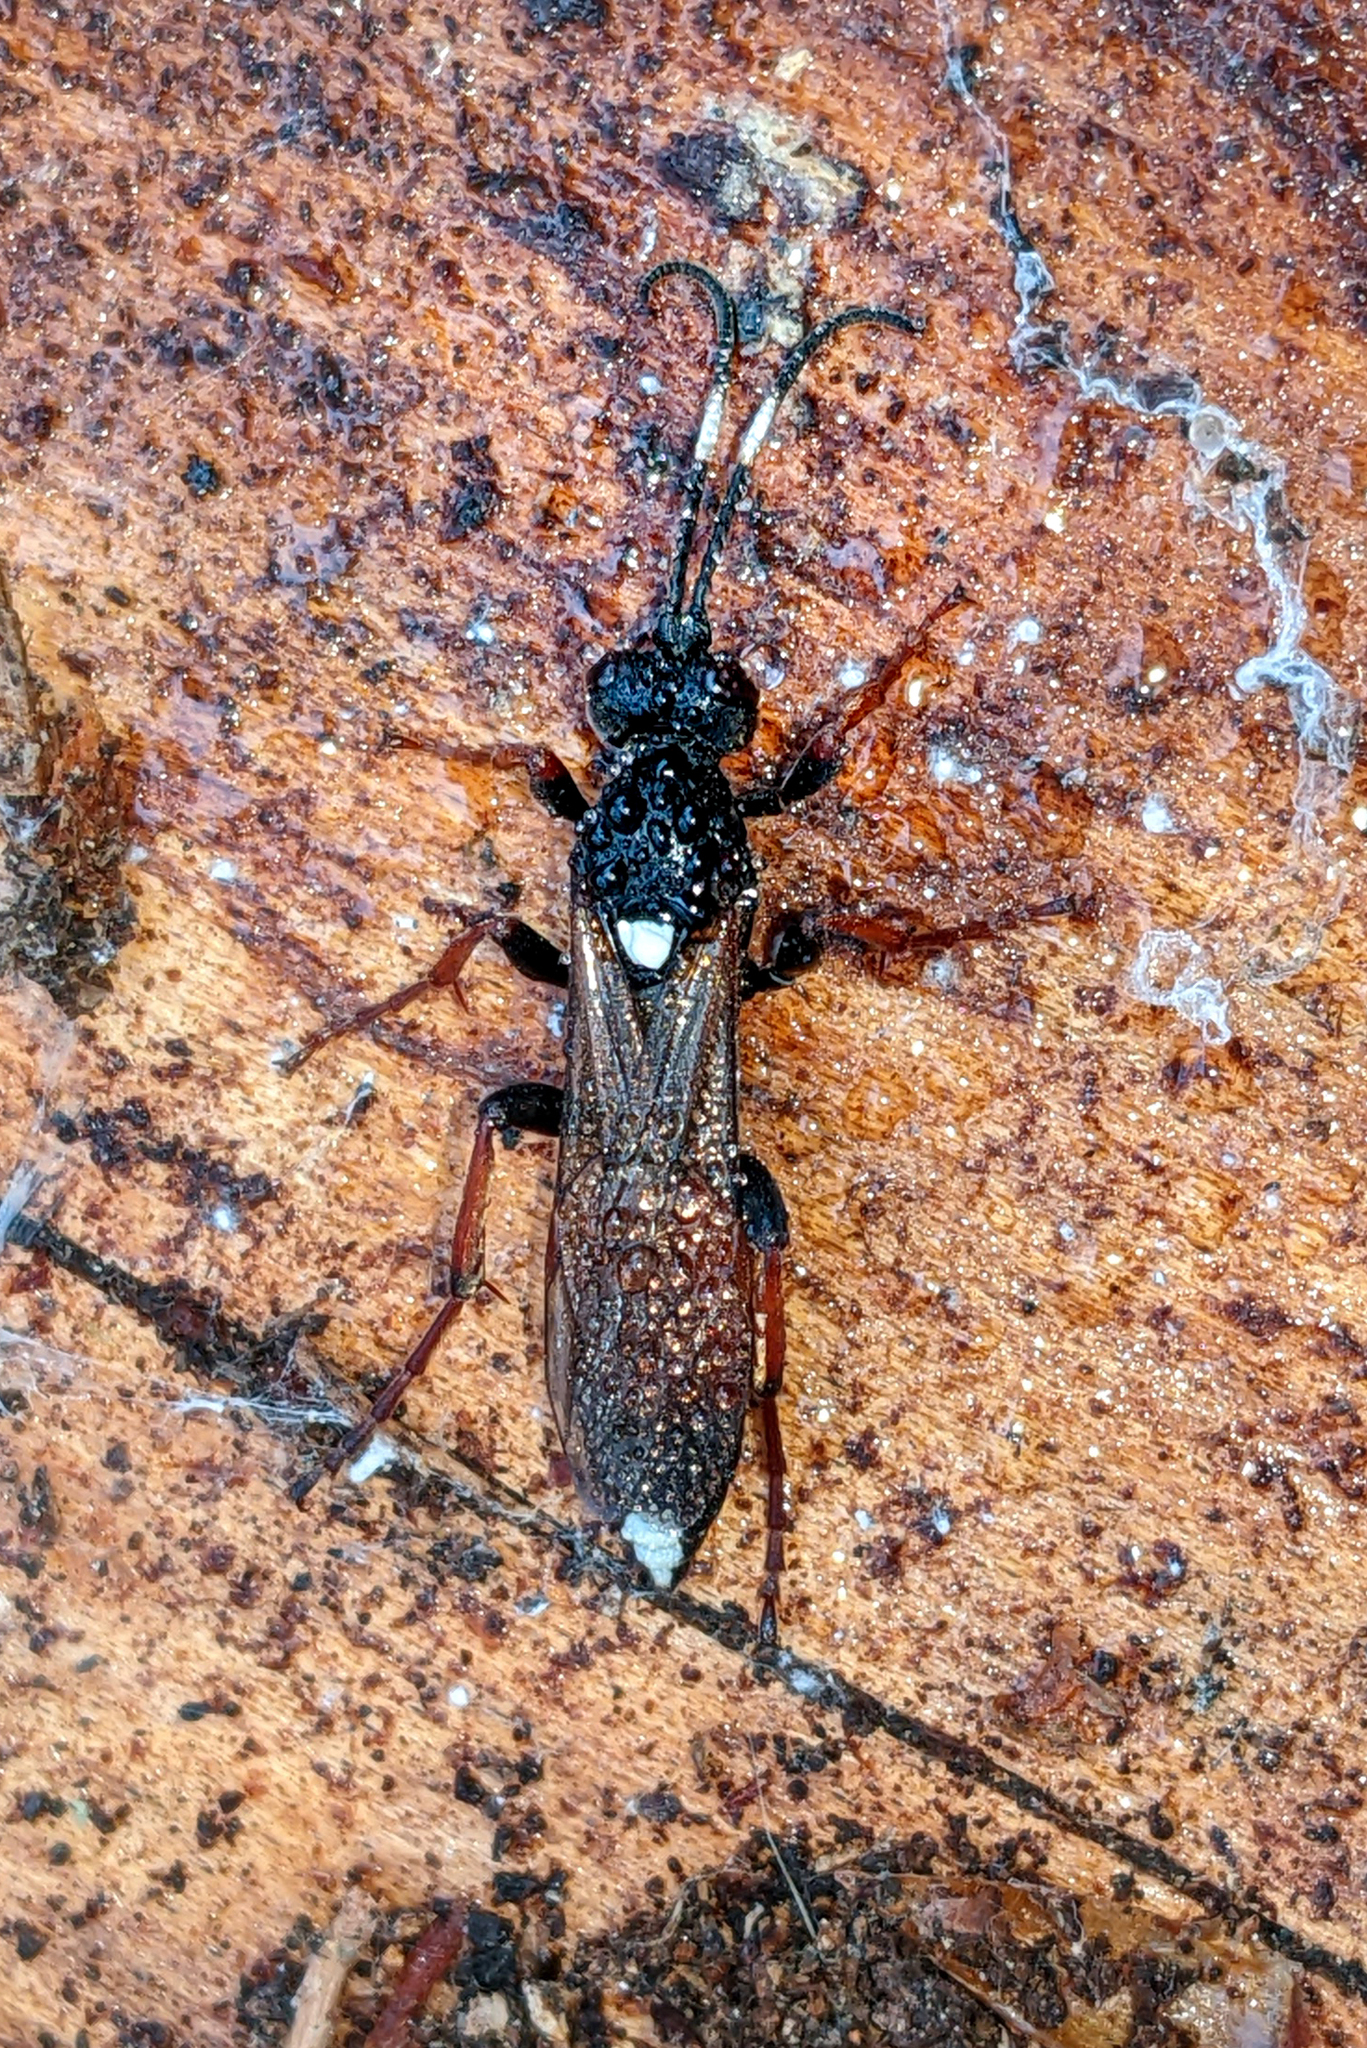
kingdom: Animalia
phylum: Arthropoda
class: Insecta
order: Hymenoptera
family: Ichneumonidae
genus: Ichneumon
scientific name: Ichneumon bucculentus
